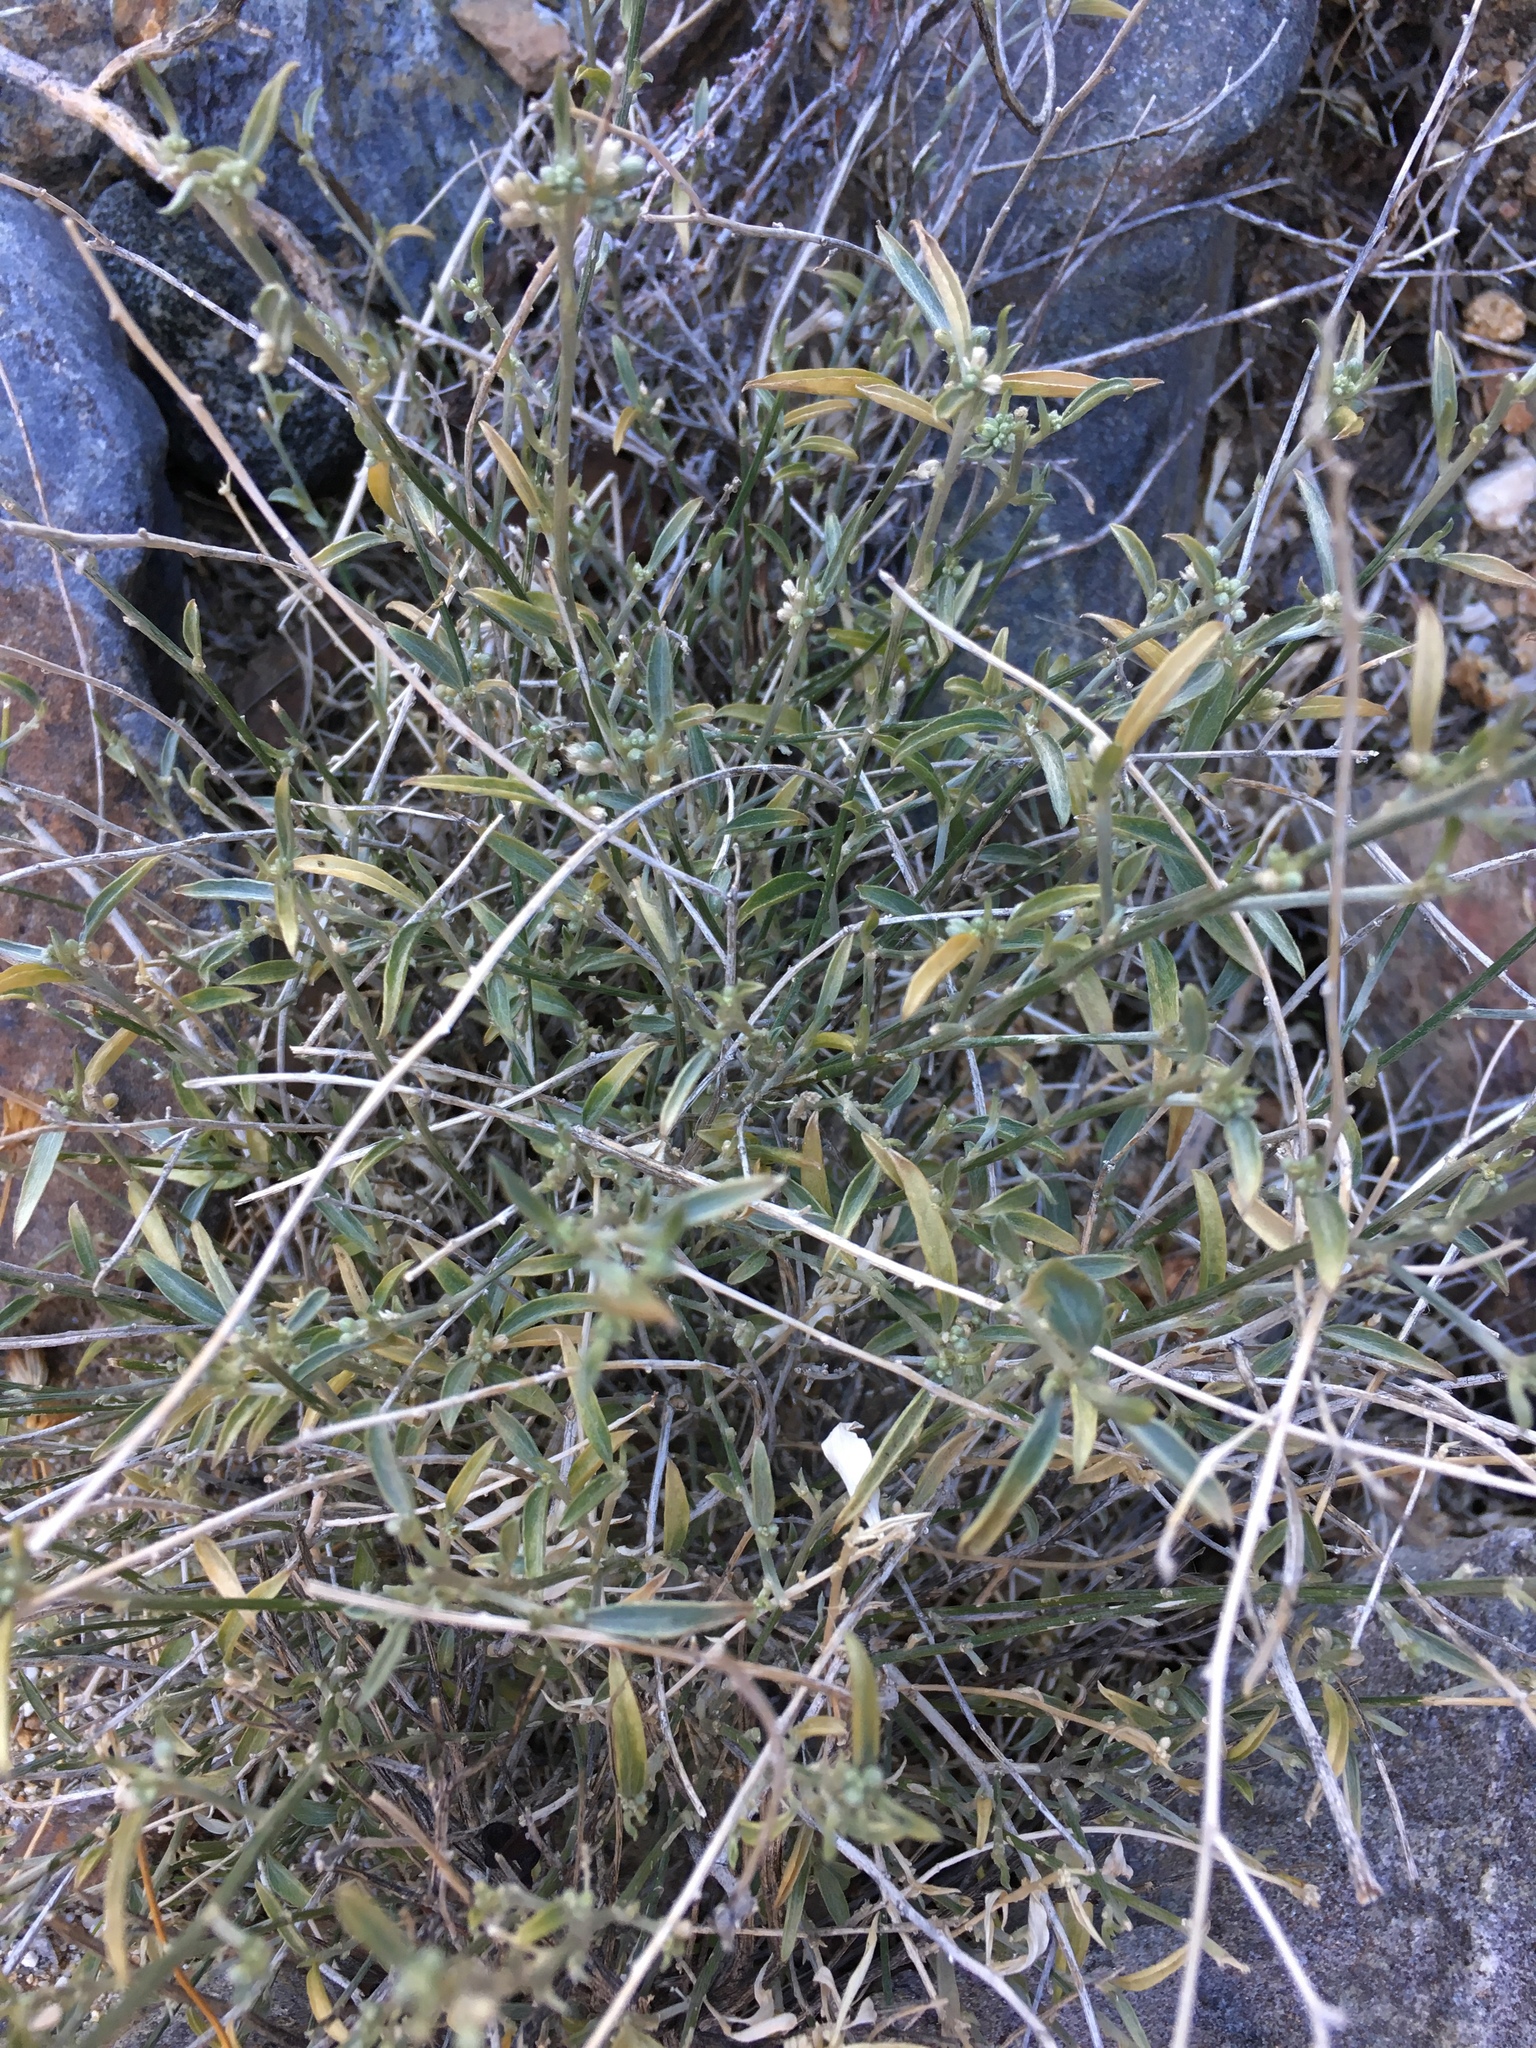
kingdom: Plantae
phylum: Tracheophyta
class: Magnoliopsida
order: Malpighiales
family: Euphorbiaceae
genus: Ditaxis
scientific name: Ditaxis lanceolata
